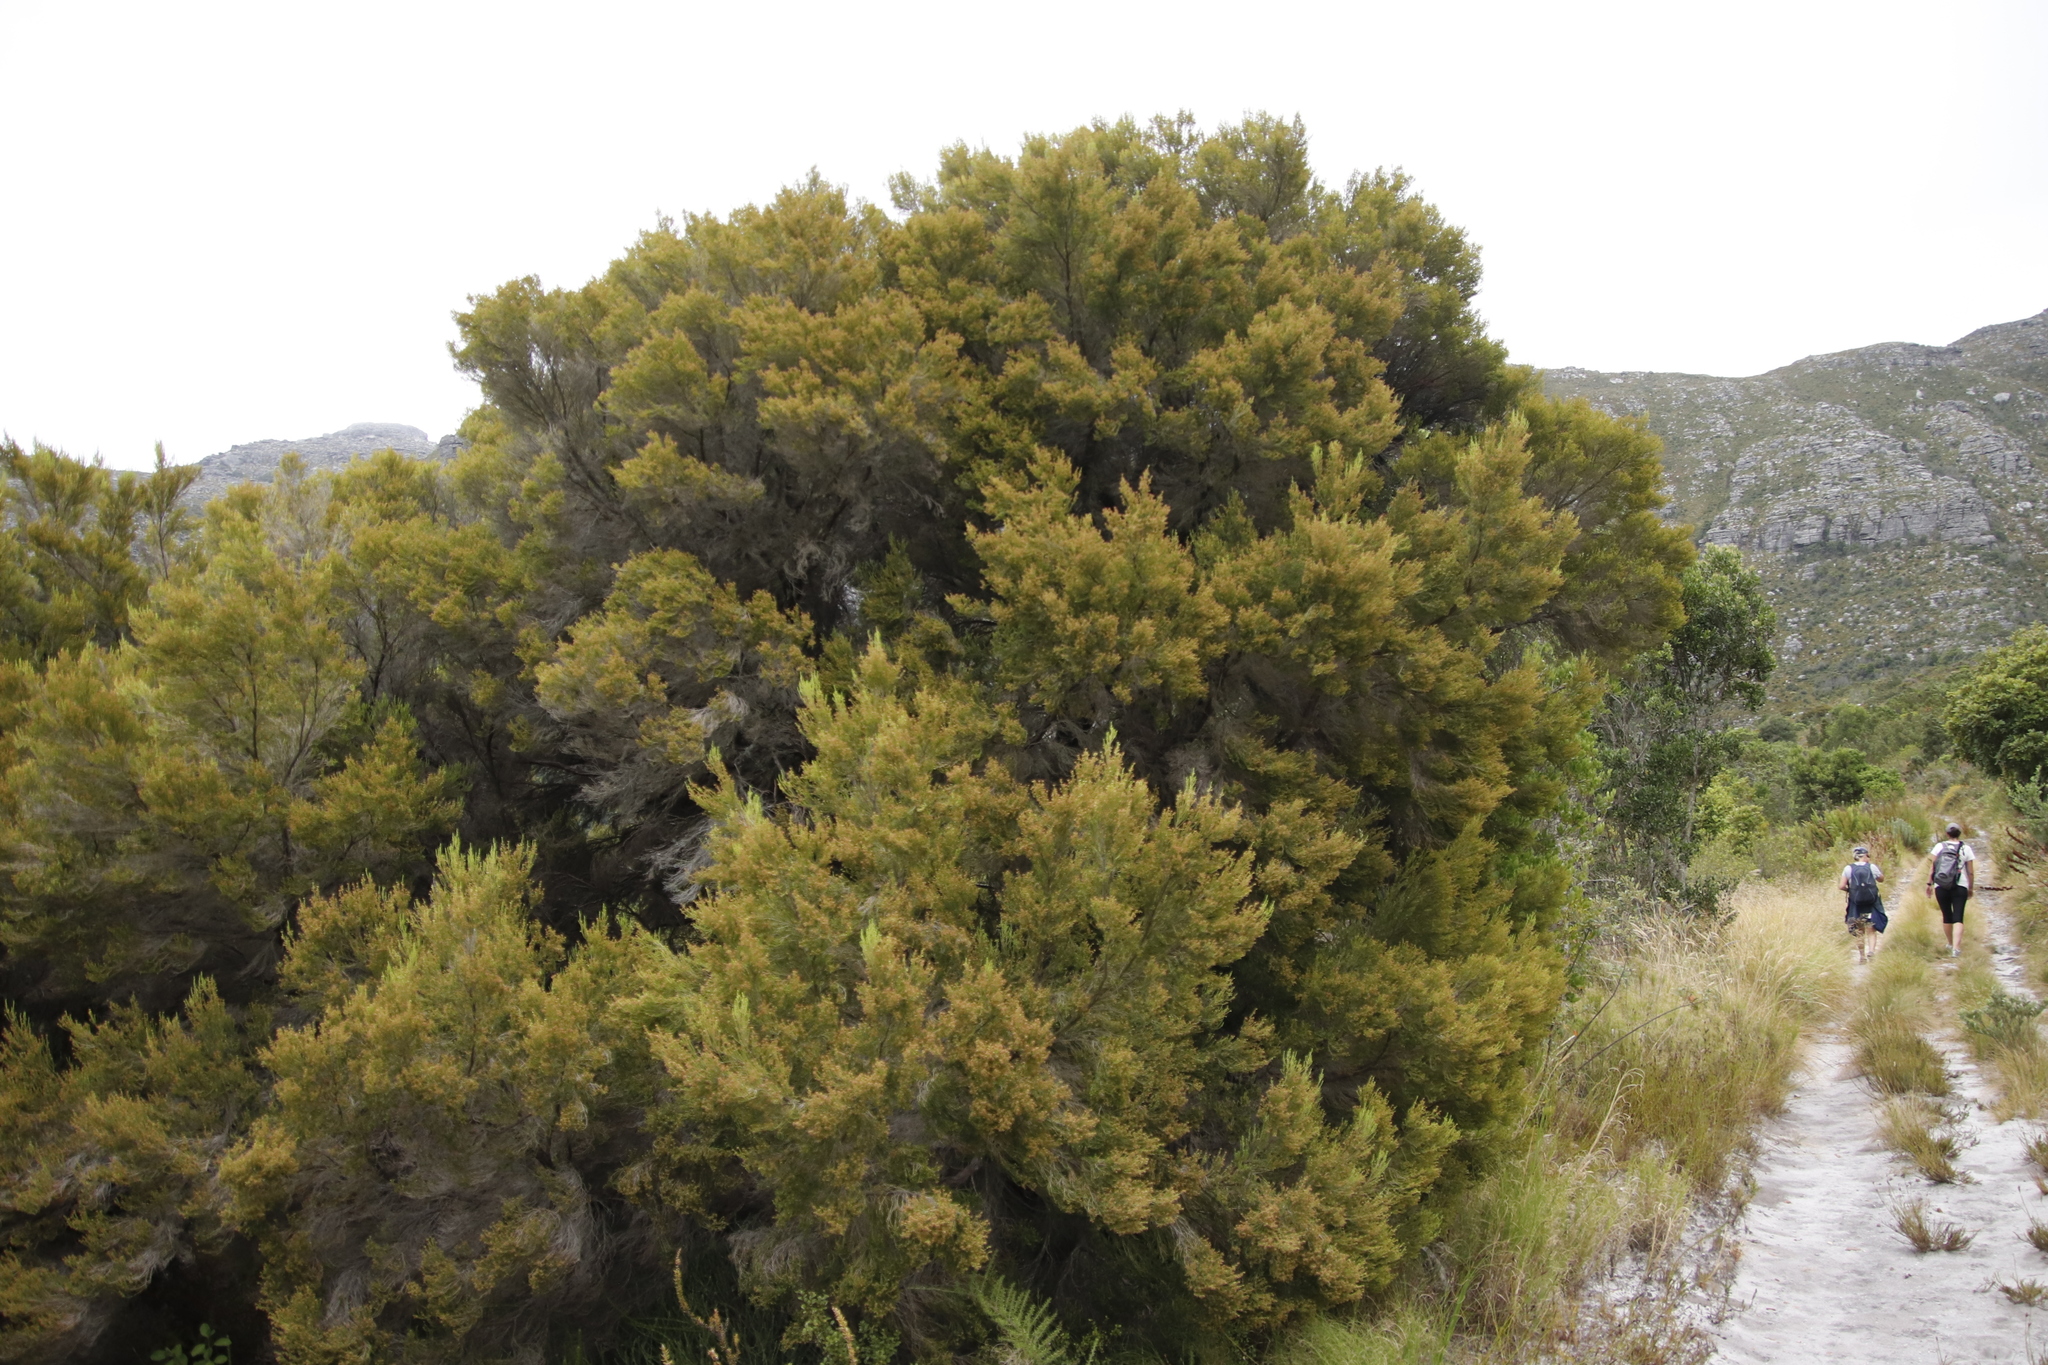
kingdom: Plantae
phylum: Tracheophyta
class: Magnoliopsida
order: Ericales
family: Ericaceae
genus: Erica
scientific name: Erica tristis
